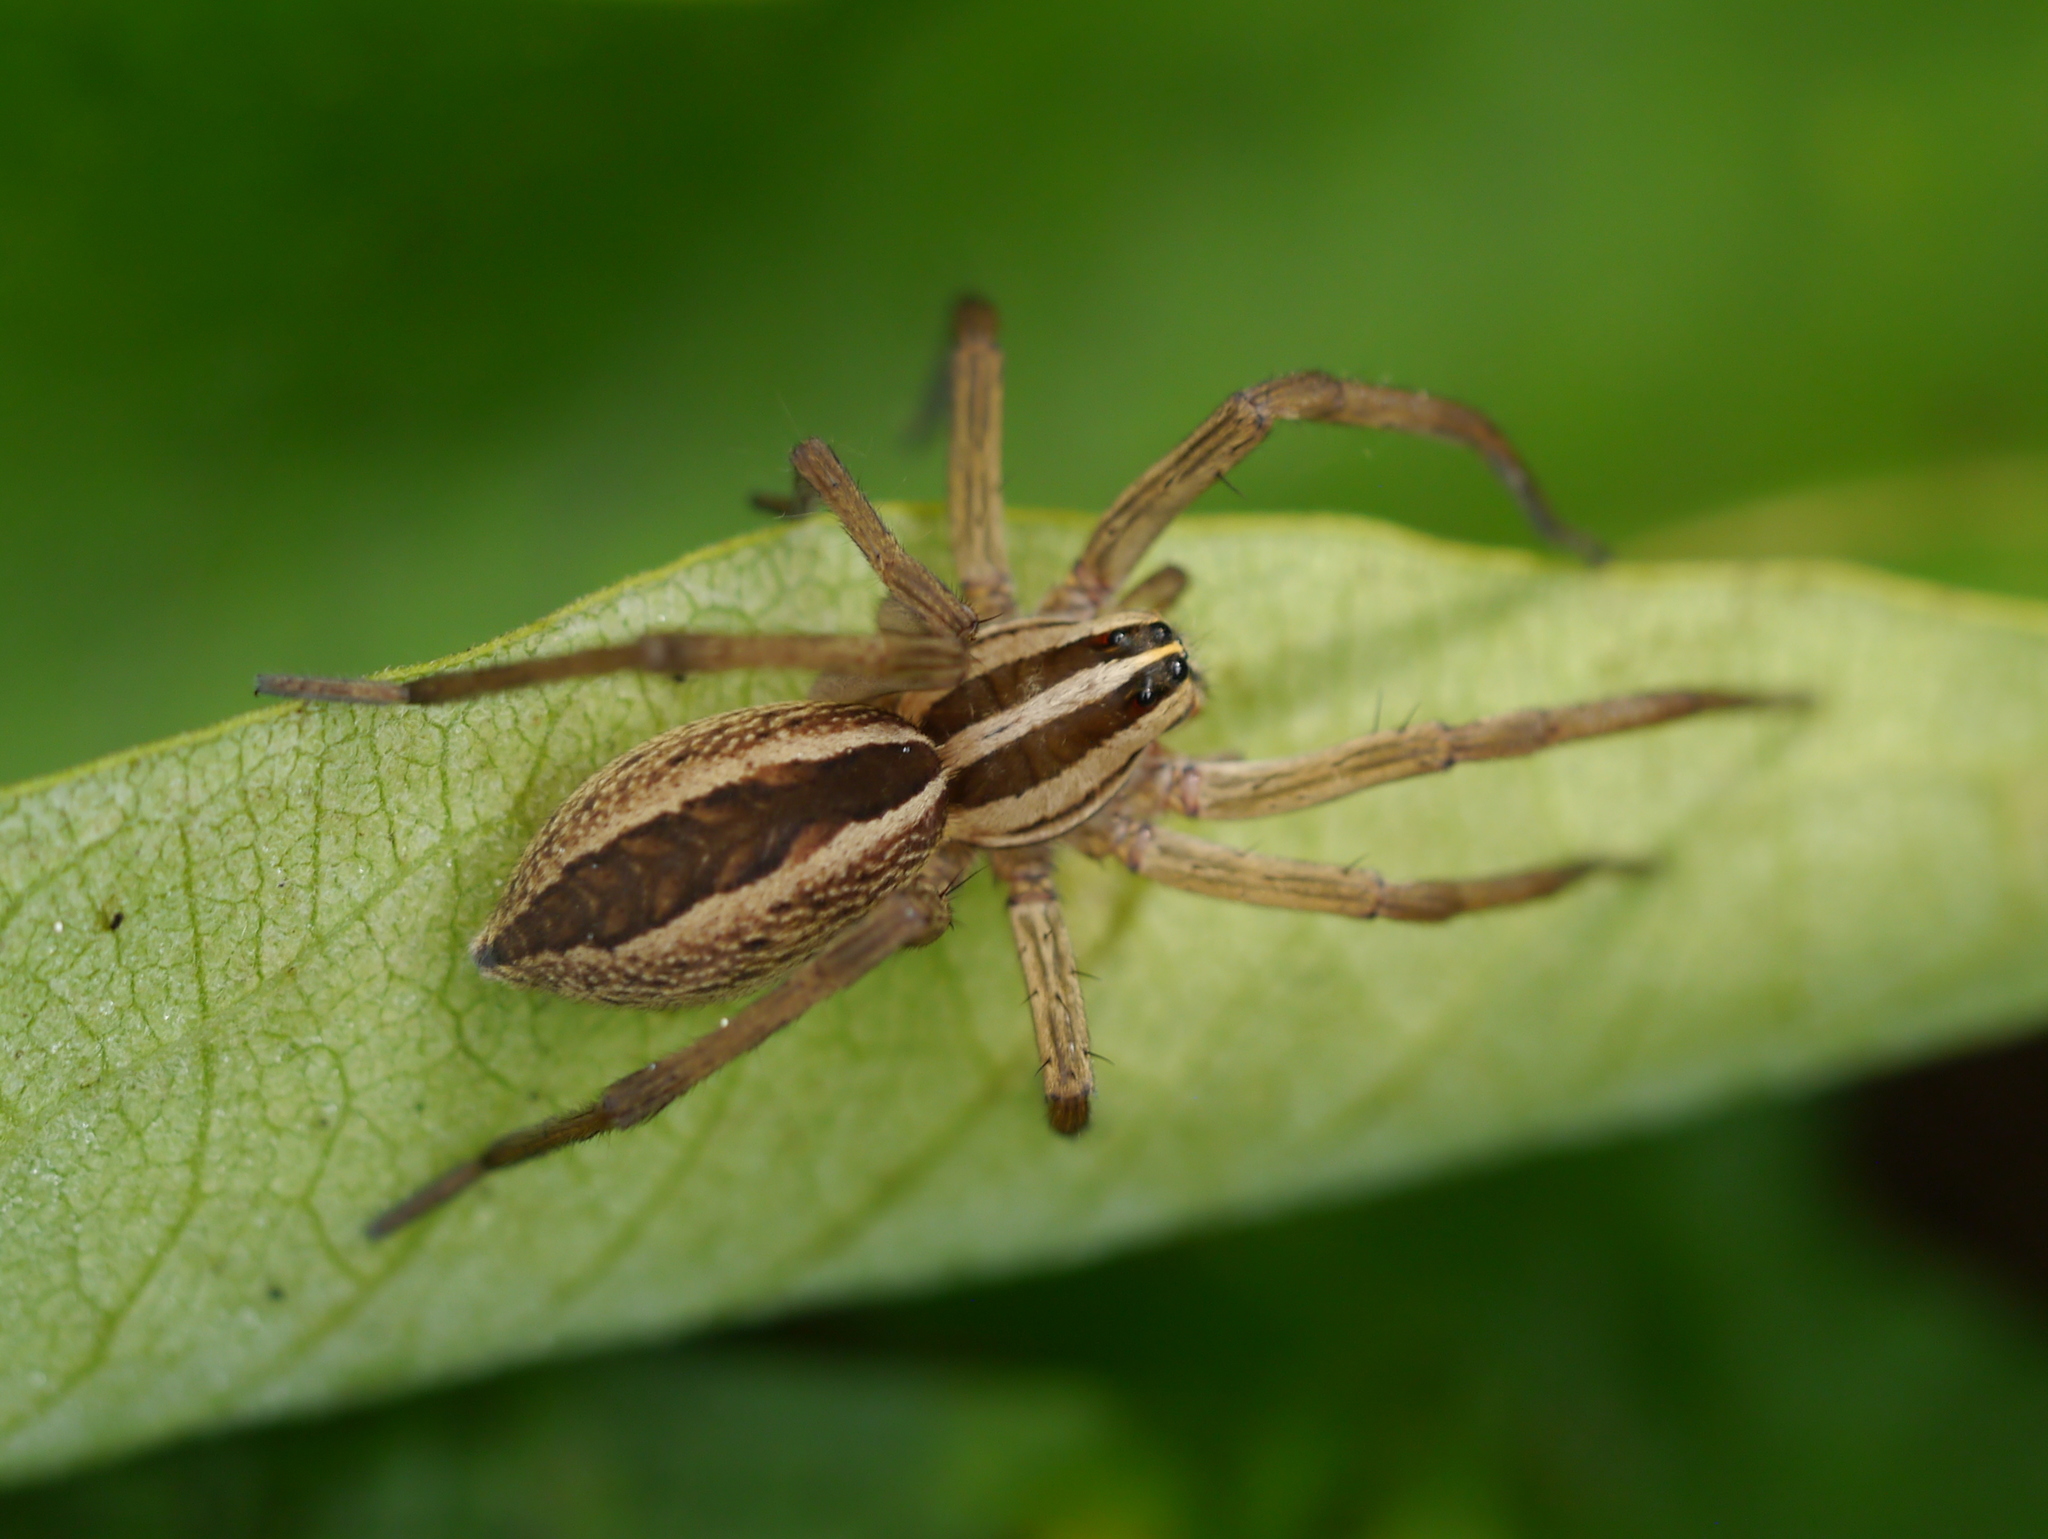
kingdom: Animalia
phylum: Arthropoda
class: Arachnida
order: Araneae
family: Lycosidae
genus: Rabidosa
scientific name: Rabidosa rabida
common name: Rabid wolf spider
